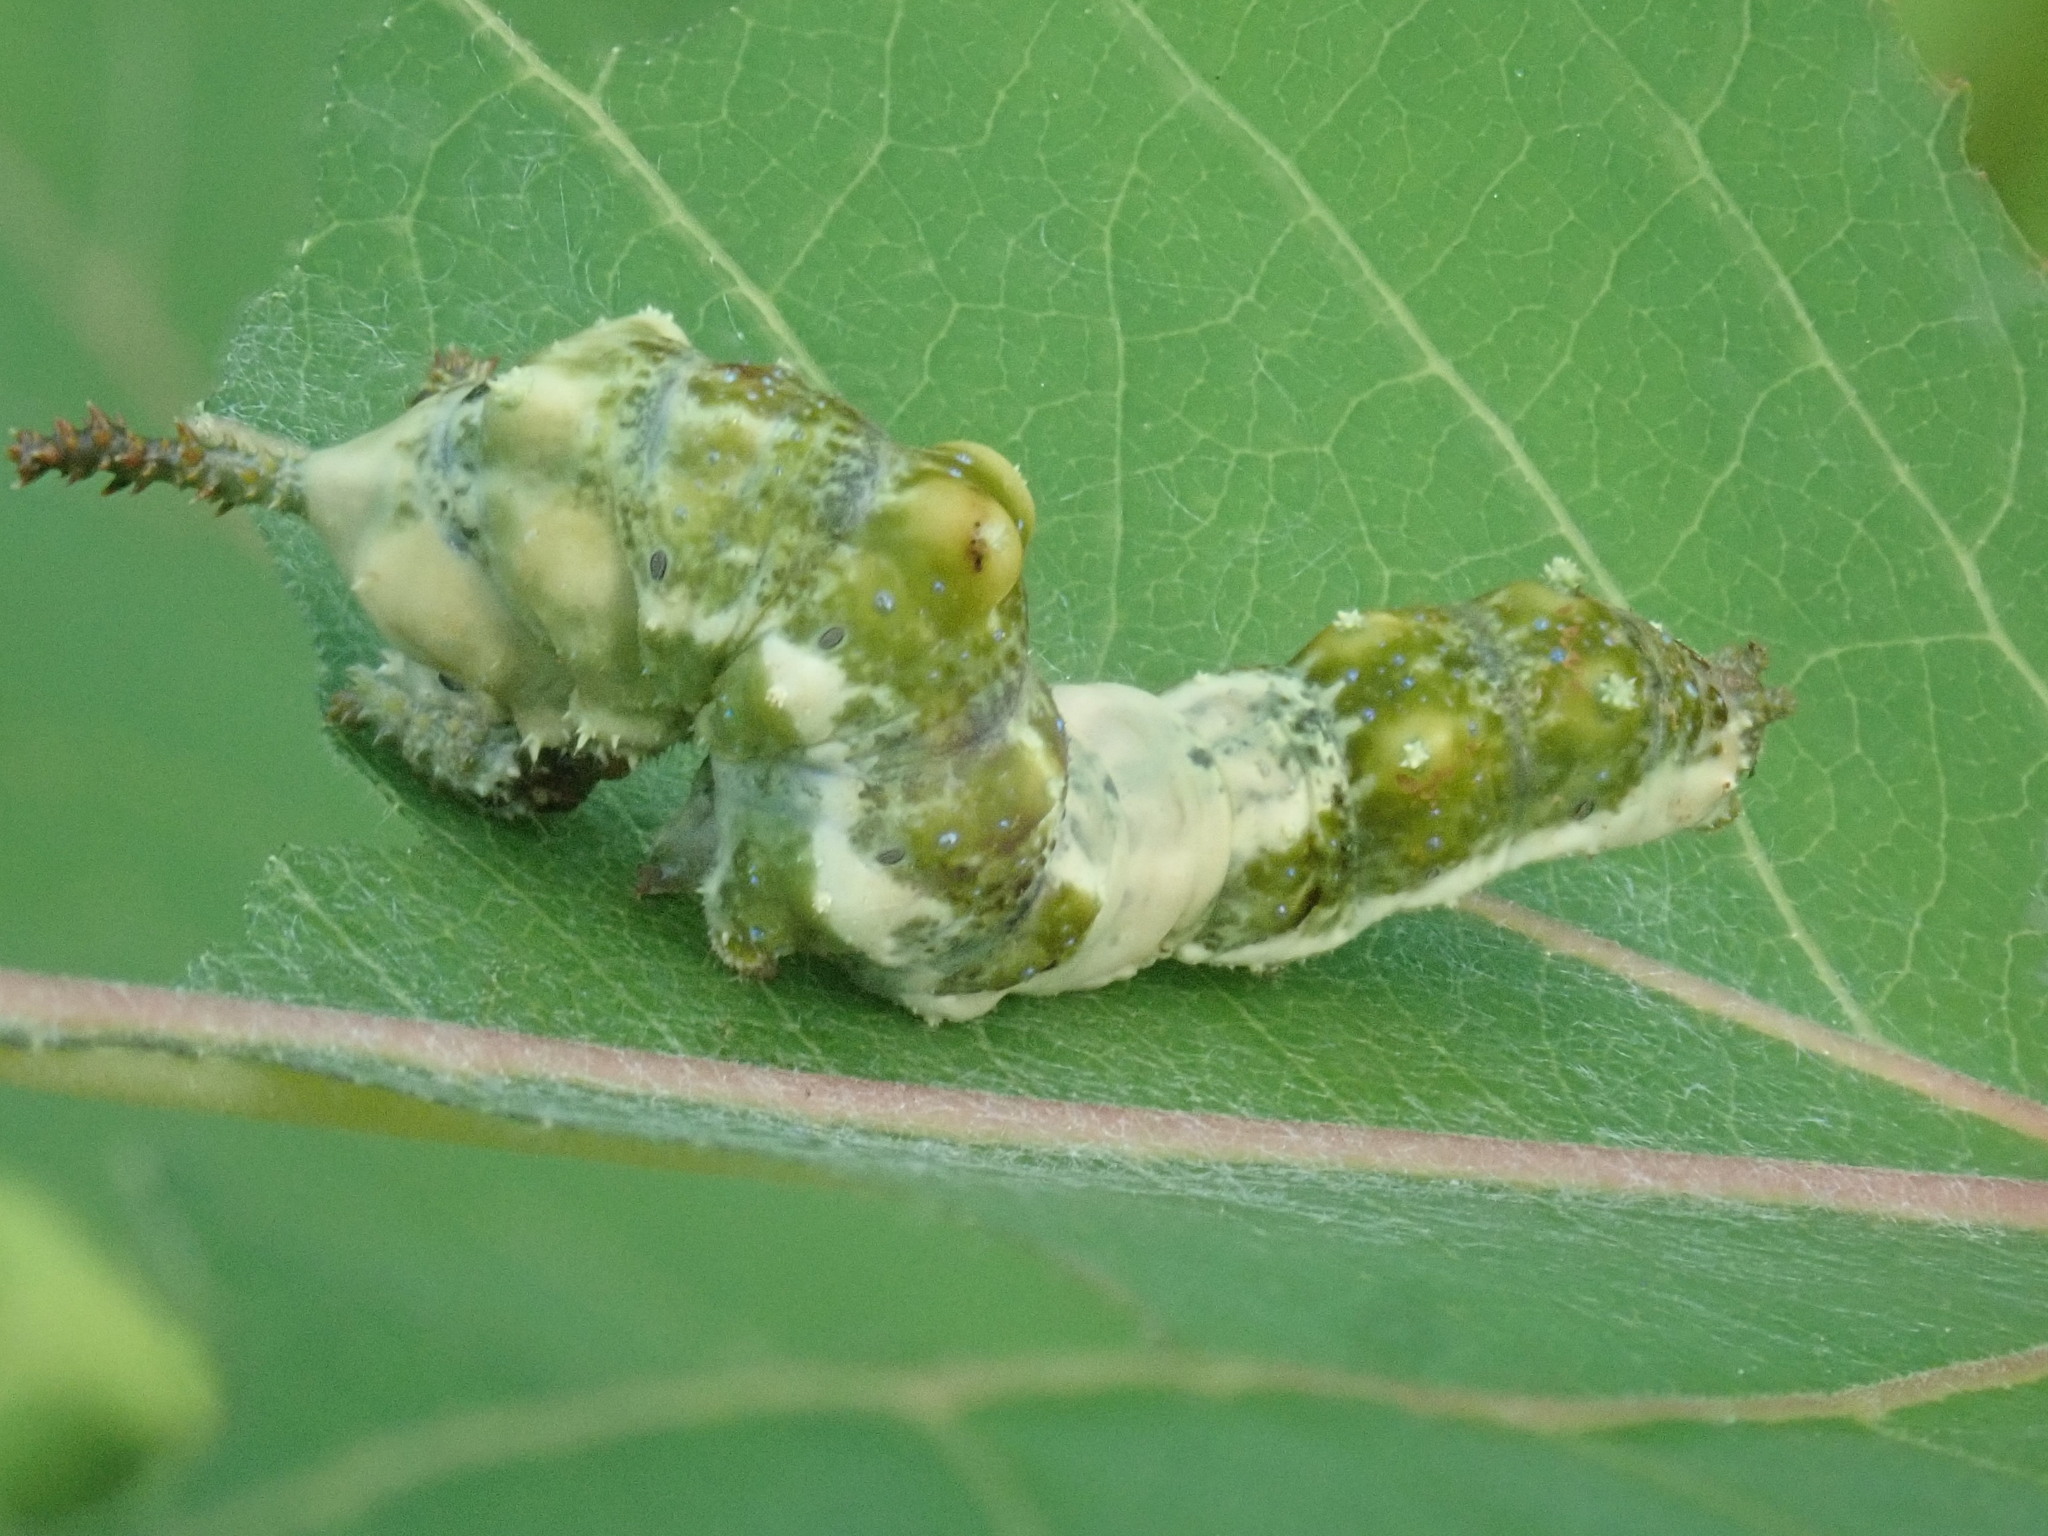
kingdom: Animalia
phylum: Arthropoda
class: Insecta
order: Lepidoptera
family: Nymphalidae
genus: Limenitis
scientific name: Limenitis archippus
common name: Viceroy
